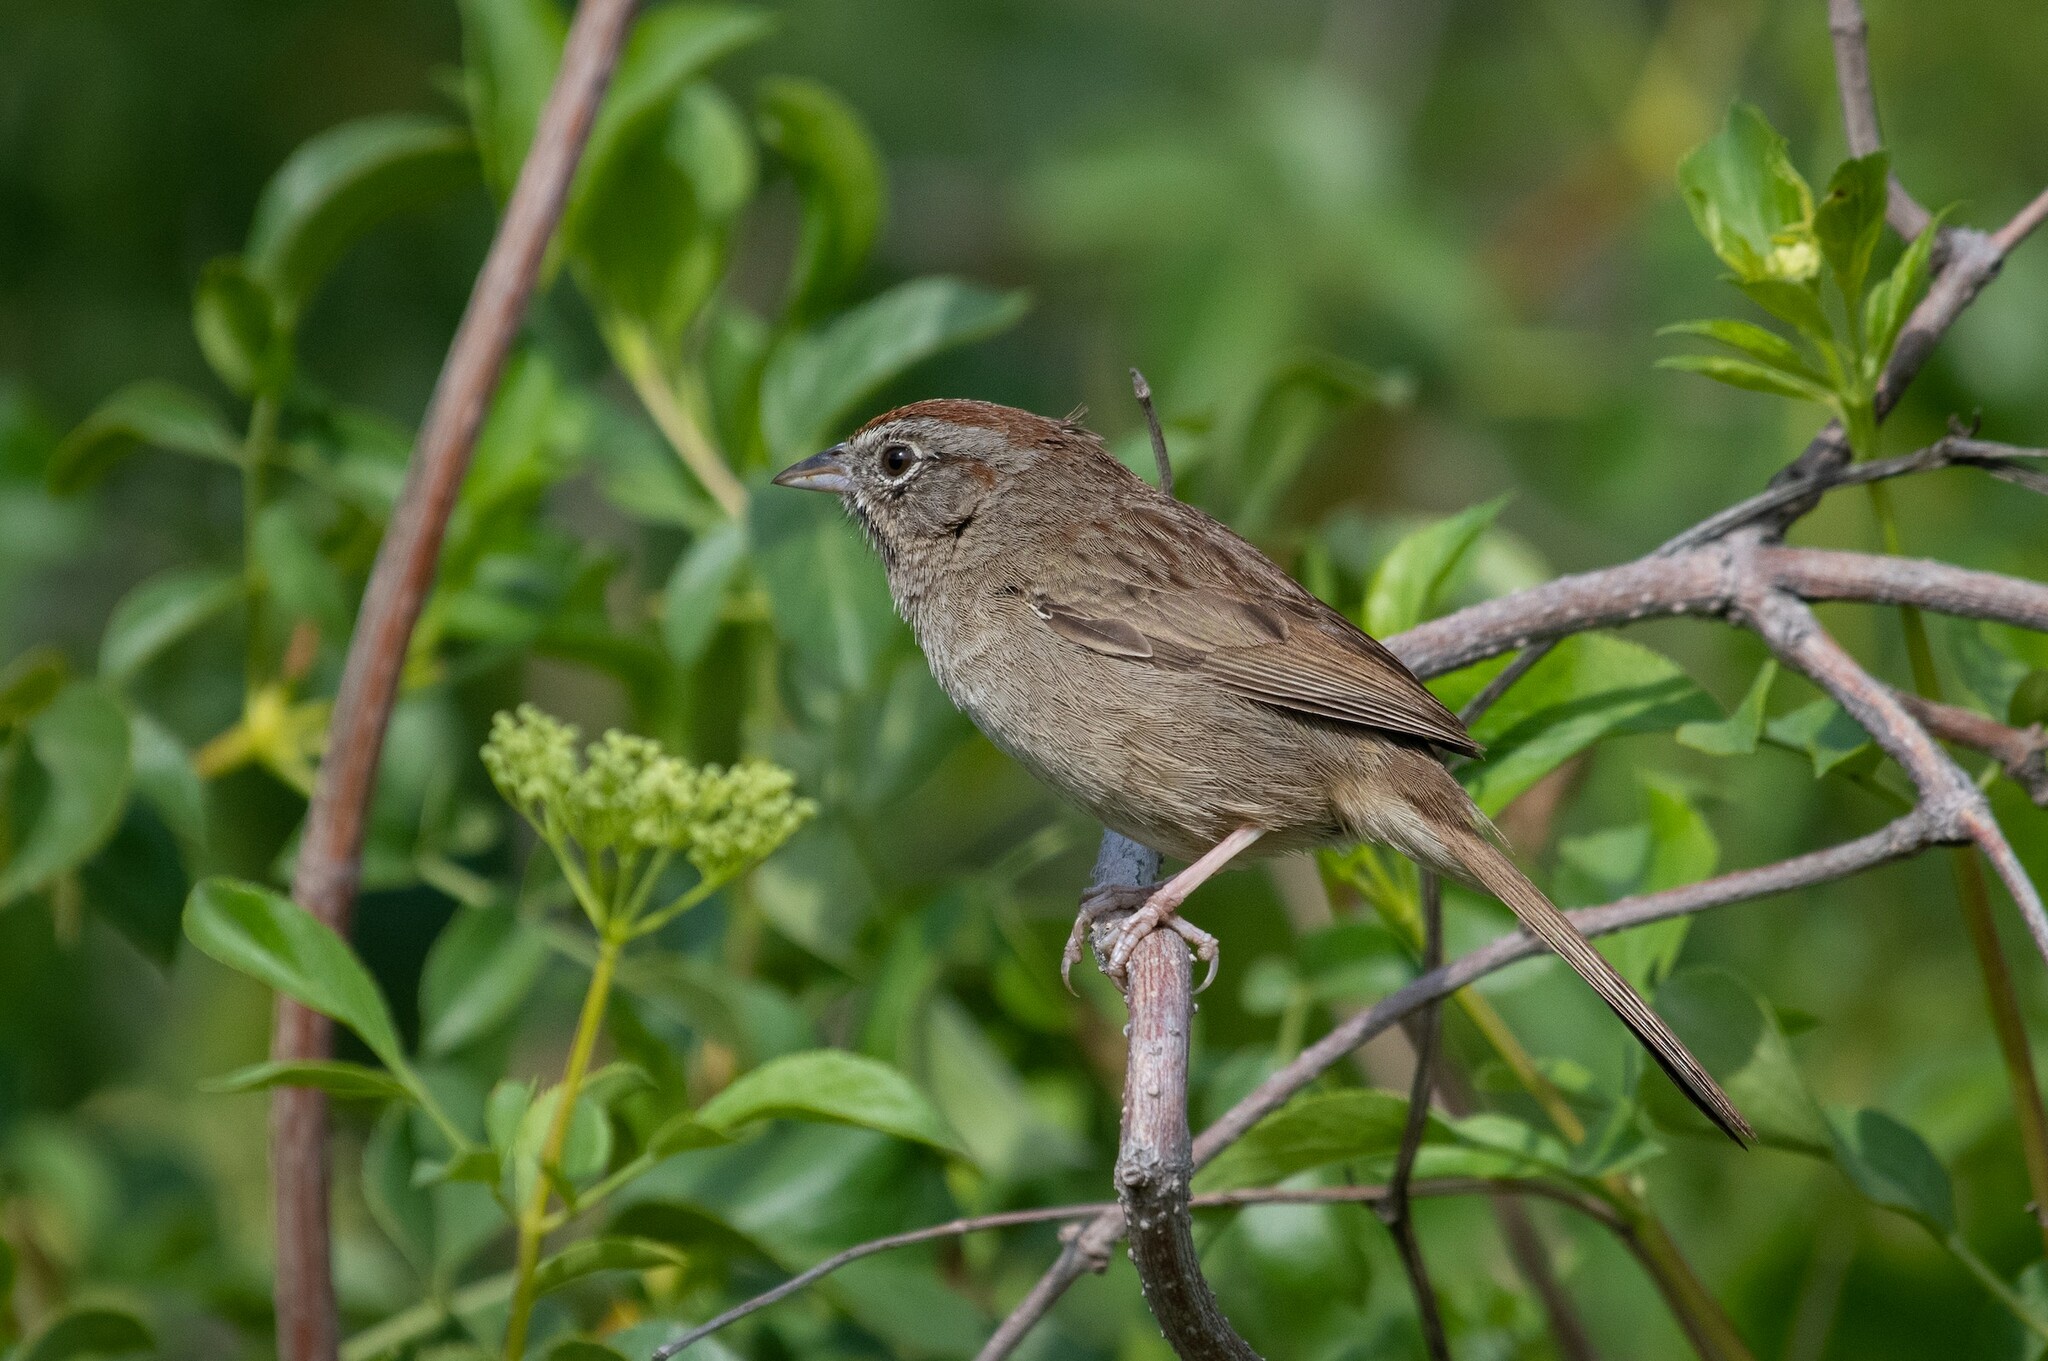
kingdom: Animalia
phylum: Chordata
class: Aves
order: Passeriformes
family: Passerellidae
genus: Aimophila
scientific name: Aimophila ruficeps
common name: Rufous-crowned sparrow
